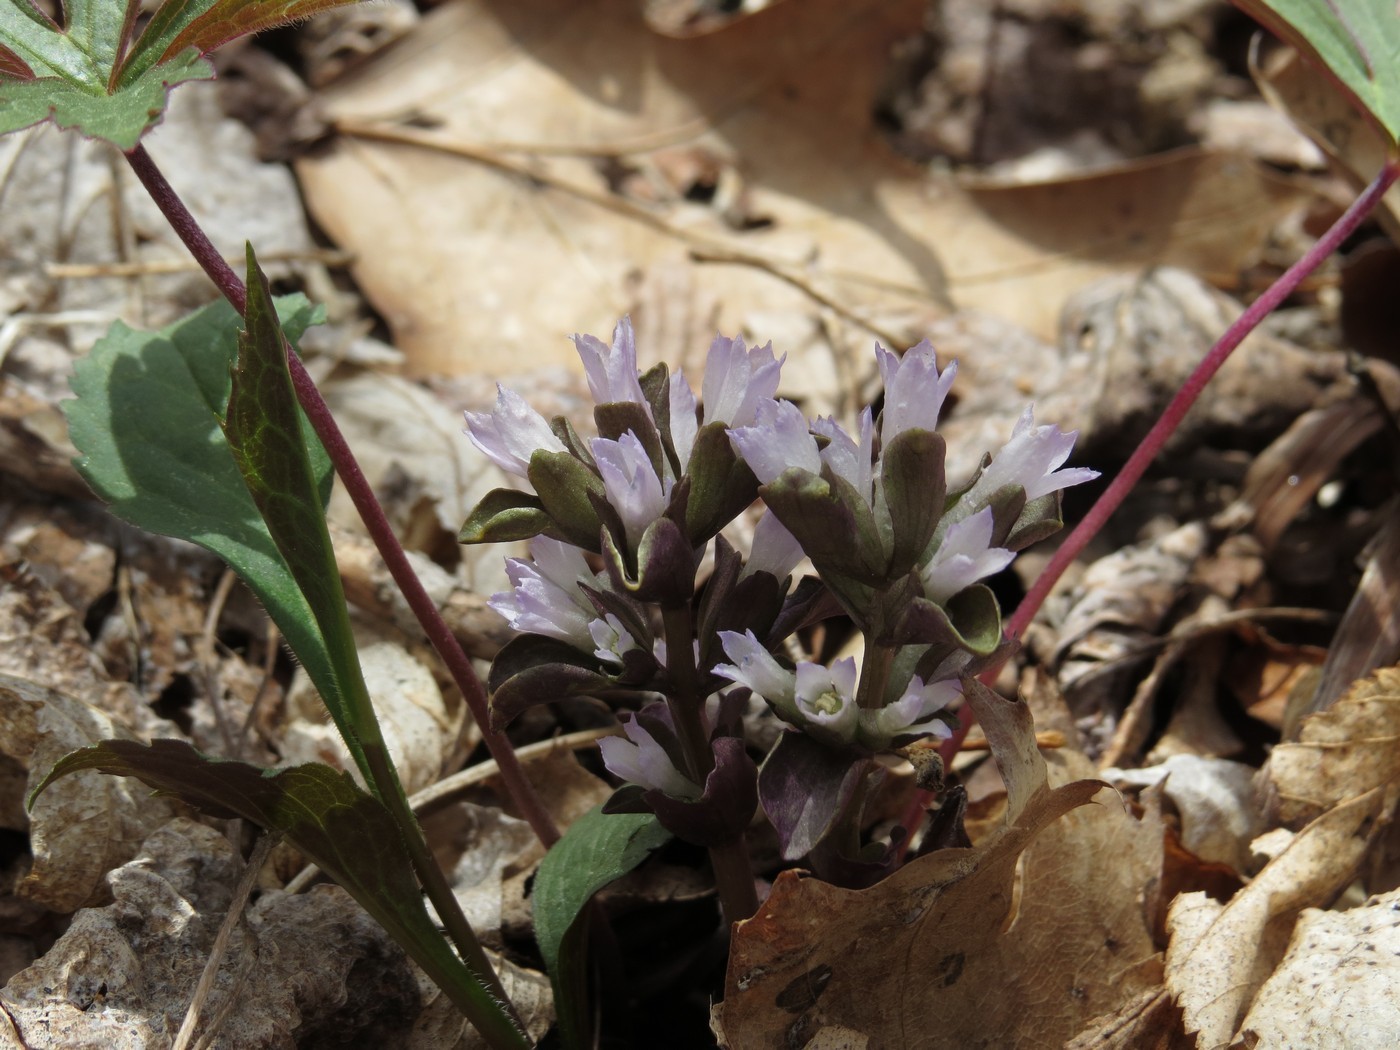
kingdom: Plantae
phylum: Tracheophyta
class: Magnoliopsida
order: Gentianales
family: Gentianaceae
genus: Obolaria
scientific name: Obolaria virginica
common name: Pennywort
